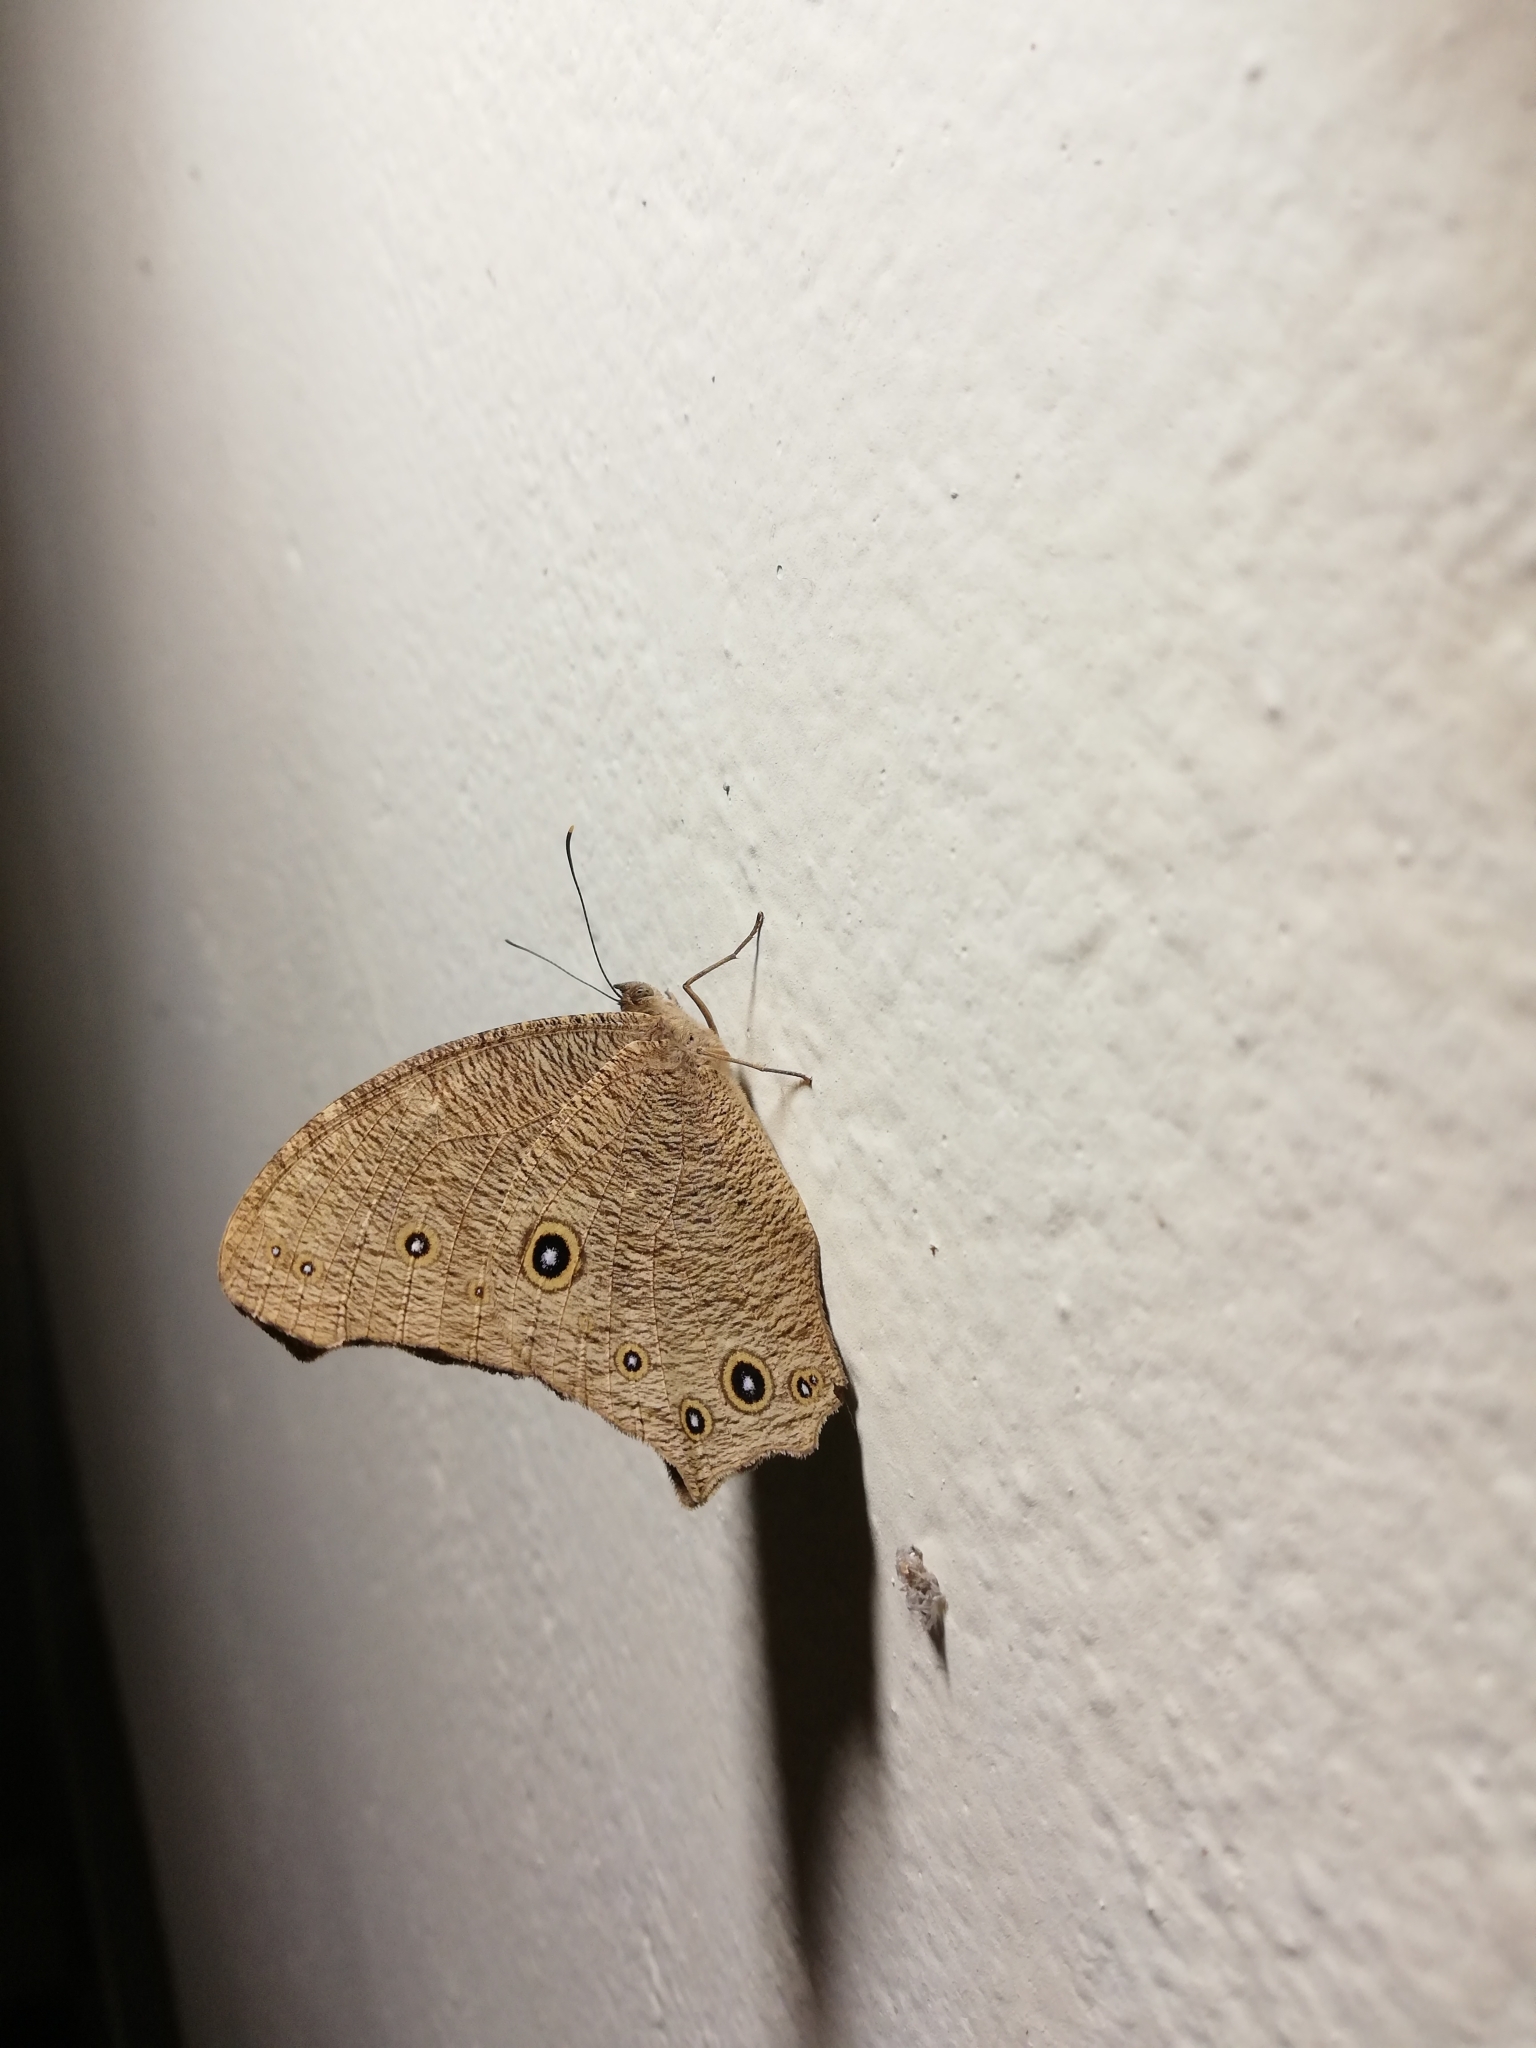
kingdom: Animalia
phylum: Arthropoda
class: Insecta
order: Lepidoptera
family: Nymphalidae
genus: Melanitis
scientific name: Melanitis leda
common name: Twilight brown
